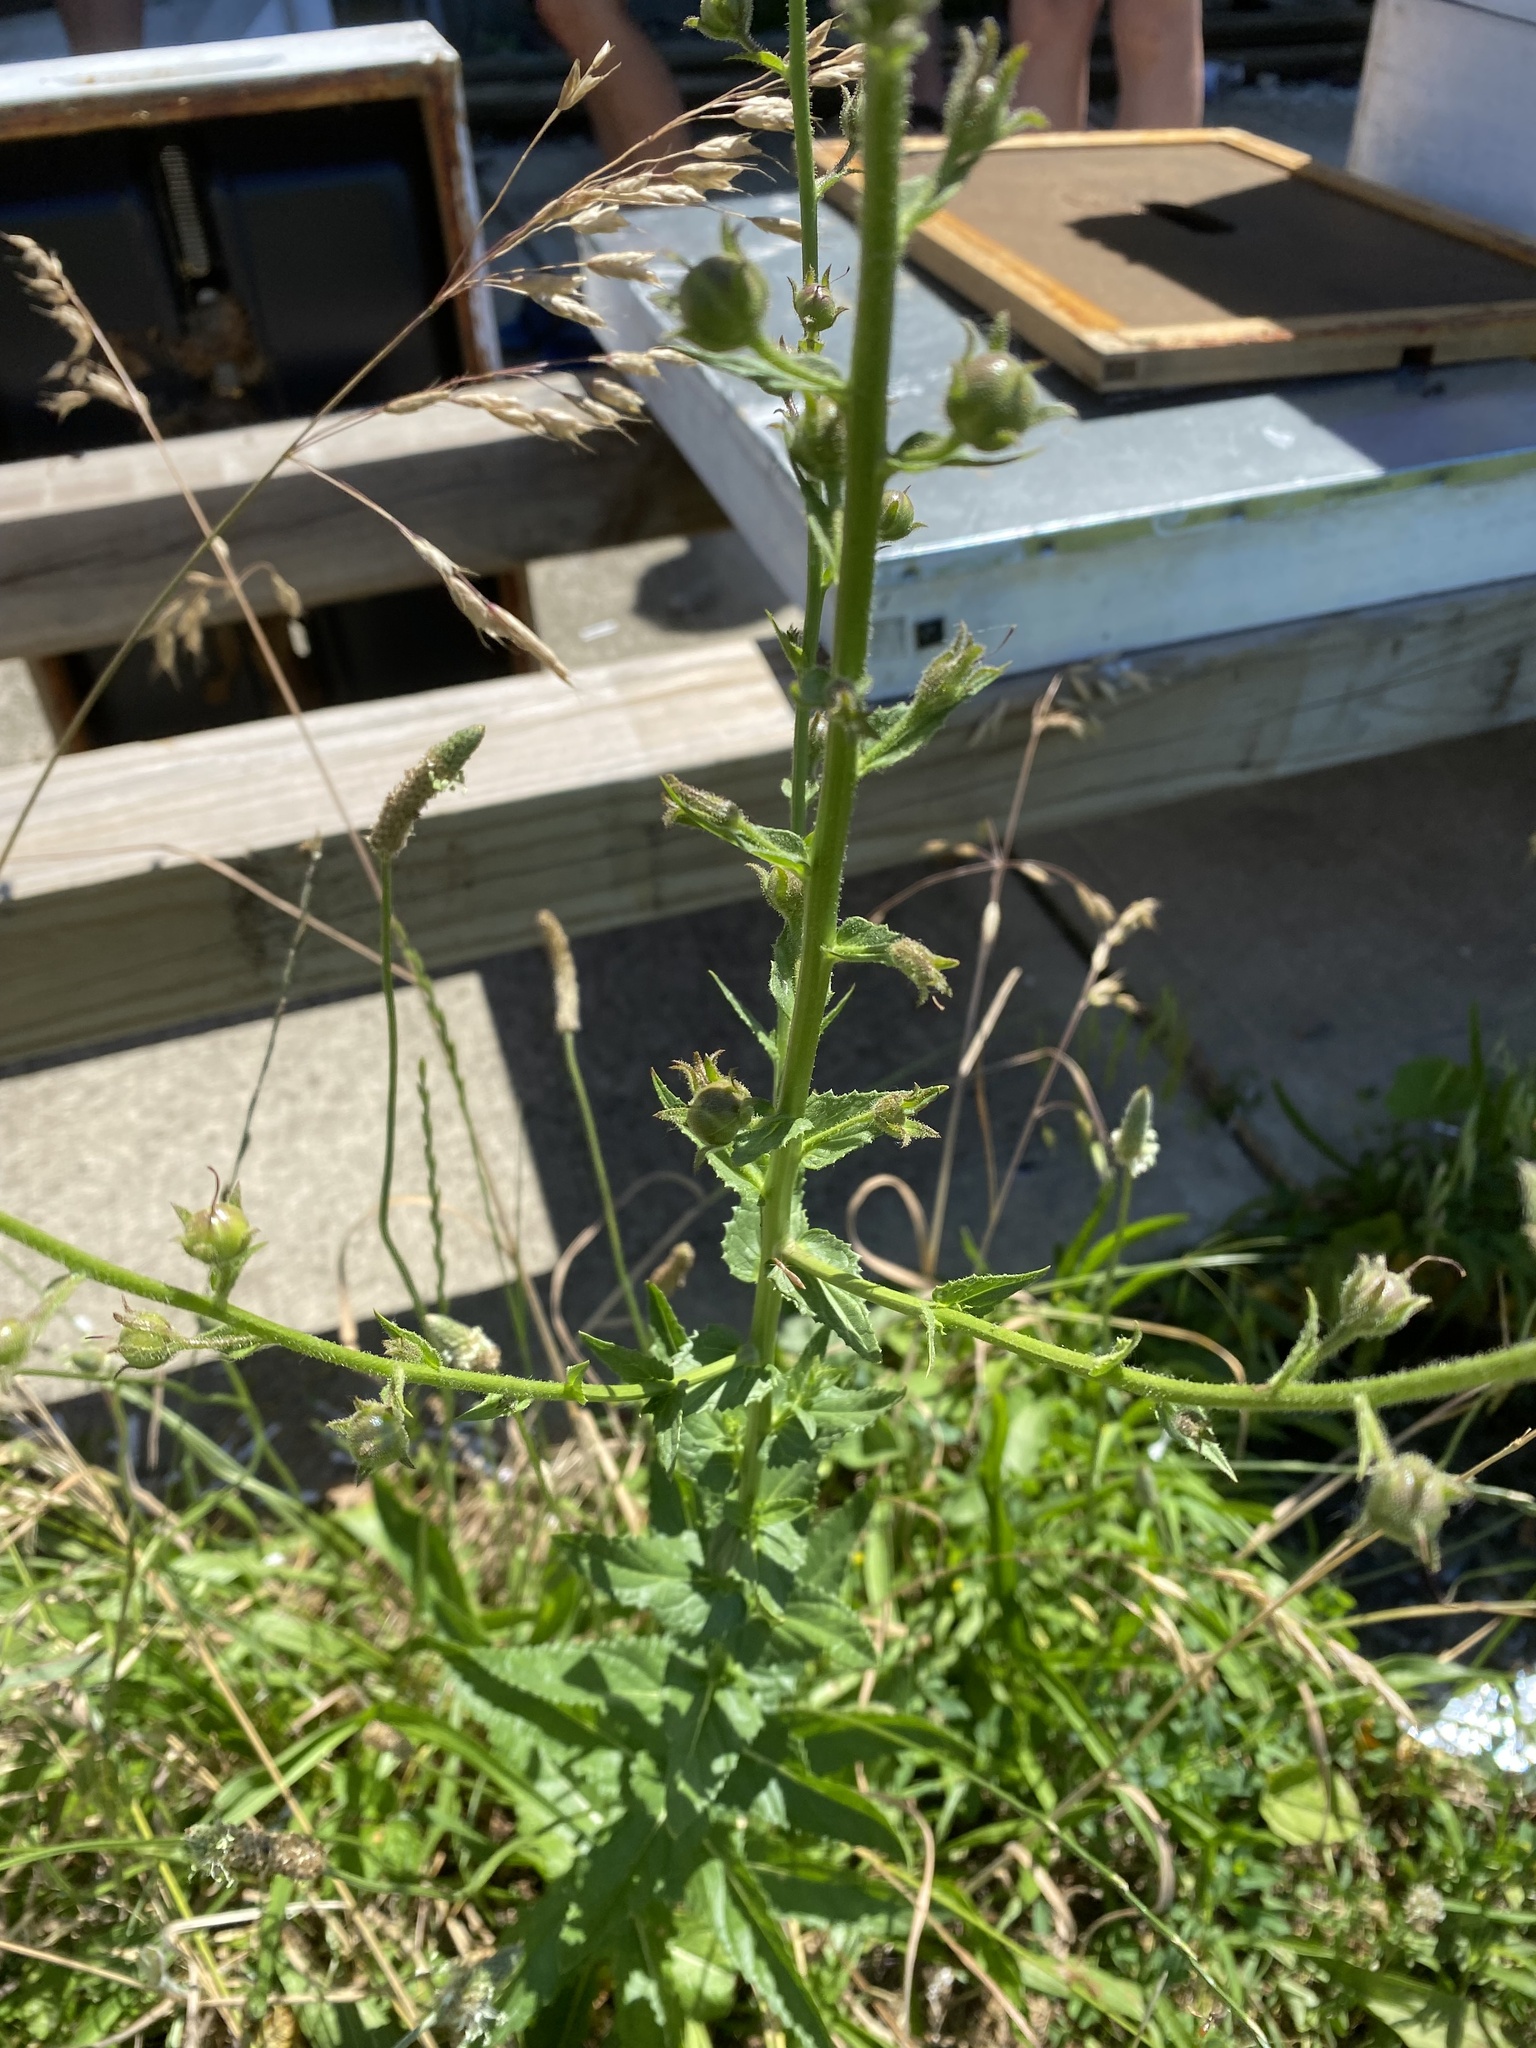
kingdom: Plantae
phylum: Tracheophyta
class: Magnoliopsida
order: Lamiales
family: Scrophulariaceae
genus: Verbascum
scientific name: Verbascum blattaria
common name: Moth mullein
